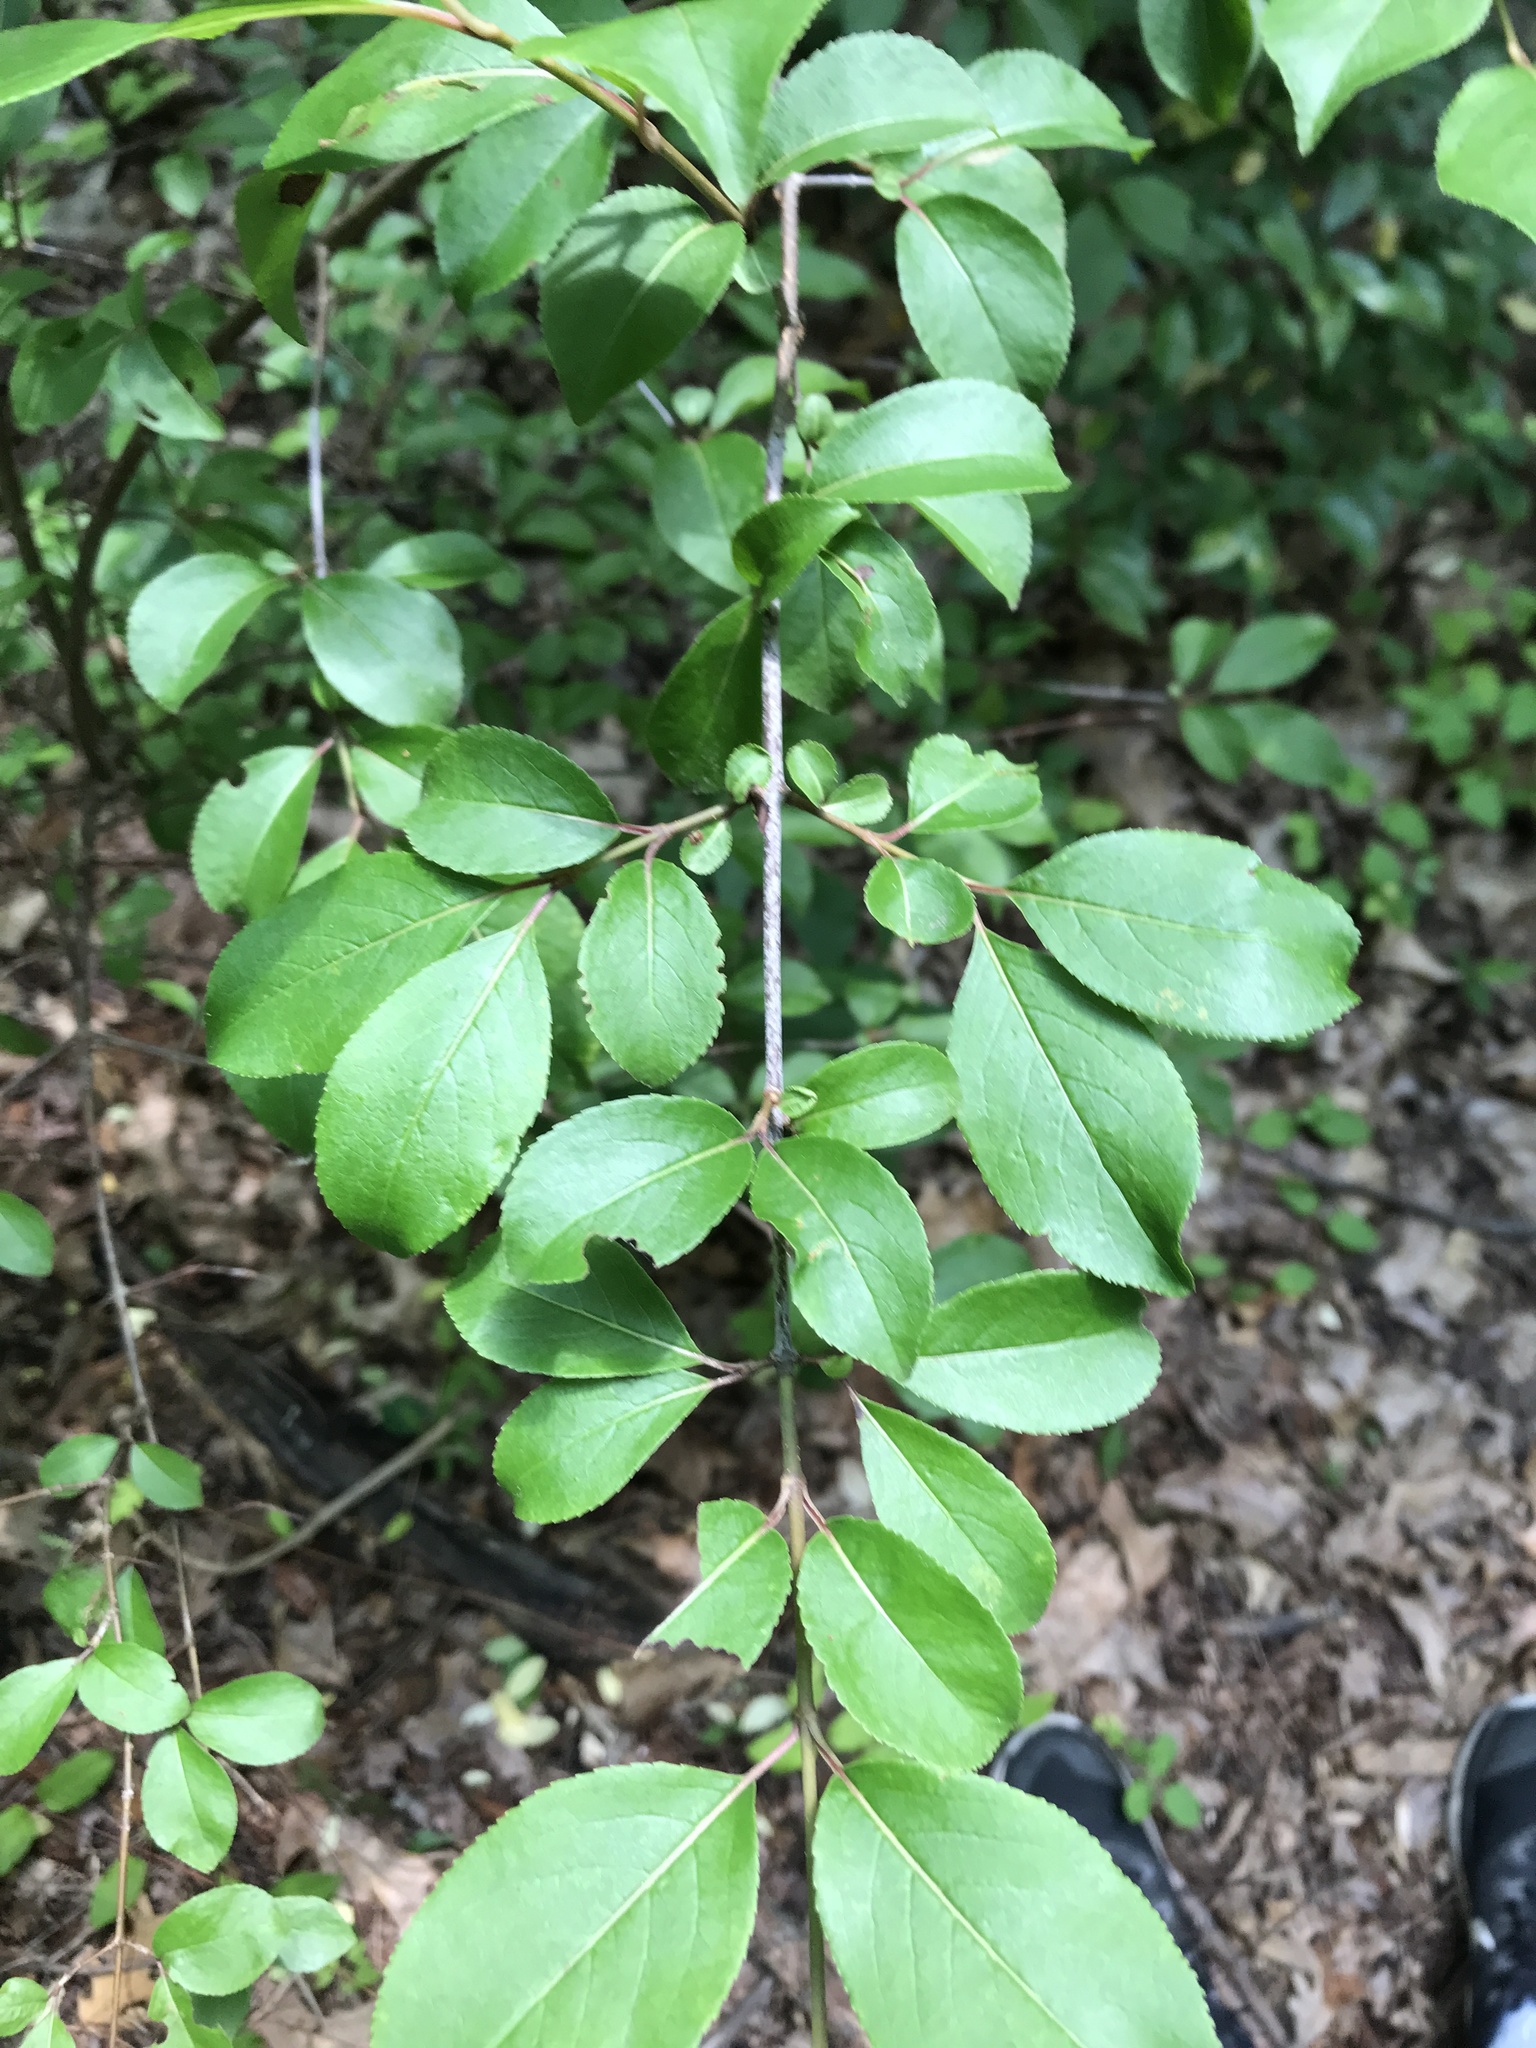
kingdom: Plantae
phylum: Tracheophyta
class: Magnoliopsida
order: Dipsacales
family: Viburnaceae
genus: Viburnum
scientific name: Viburnum prunifolium
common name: Black haw
